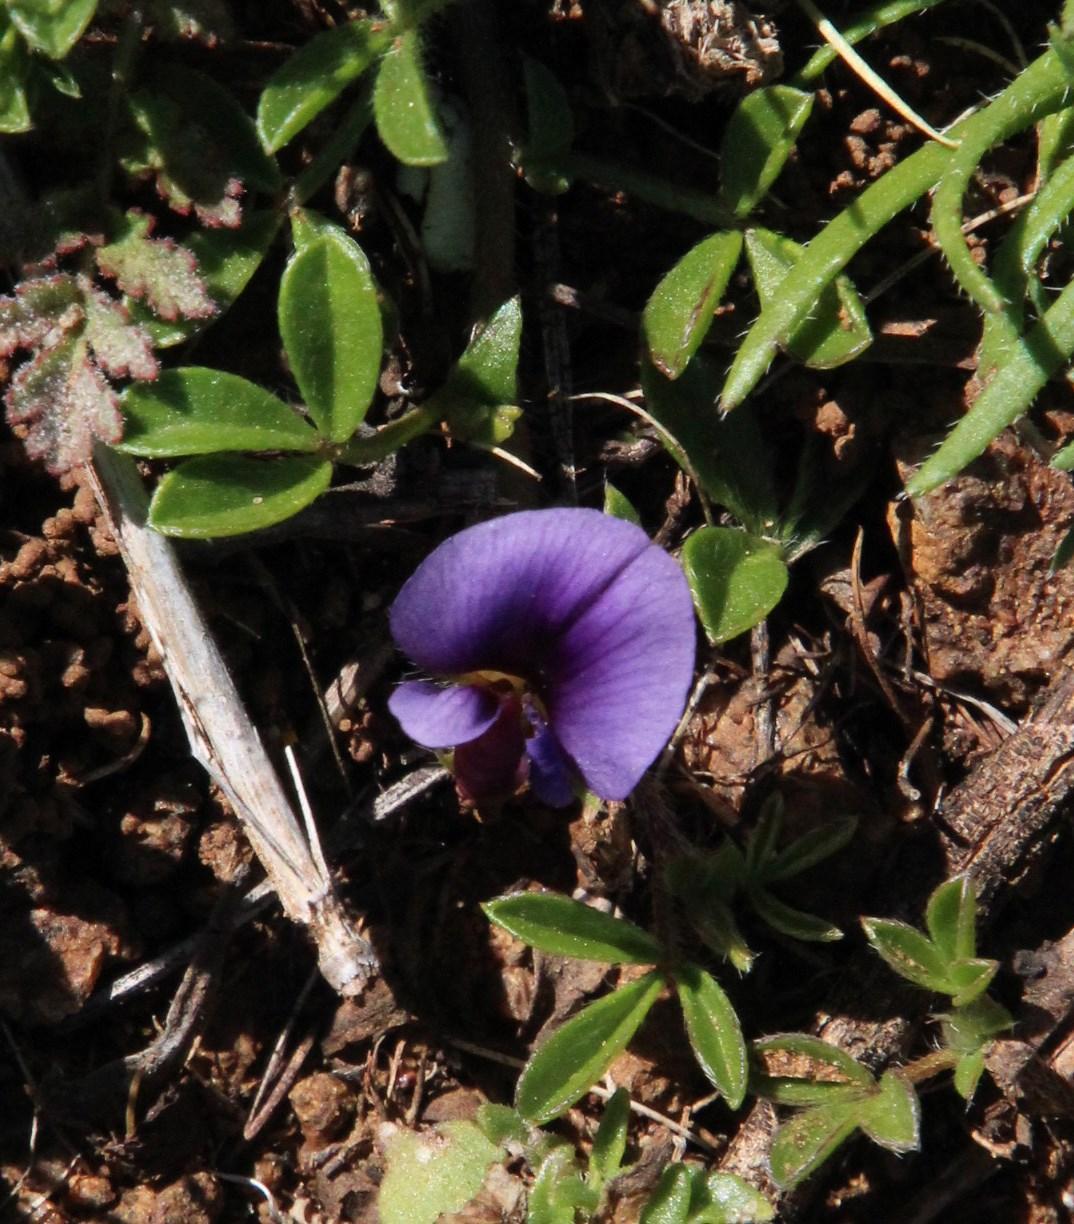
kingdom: Plantae
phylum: Tracheophyta
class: Magnoliopsida
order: Fabales
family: Fabaceae
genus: Lotononis
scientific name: Lotononis maximiliani
